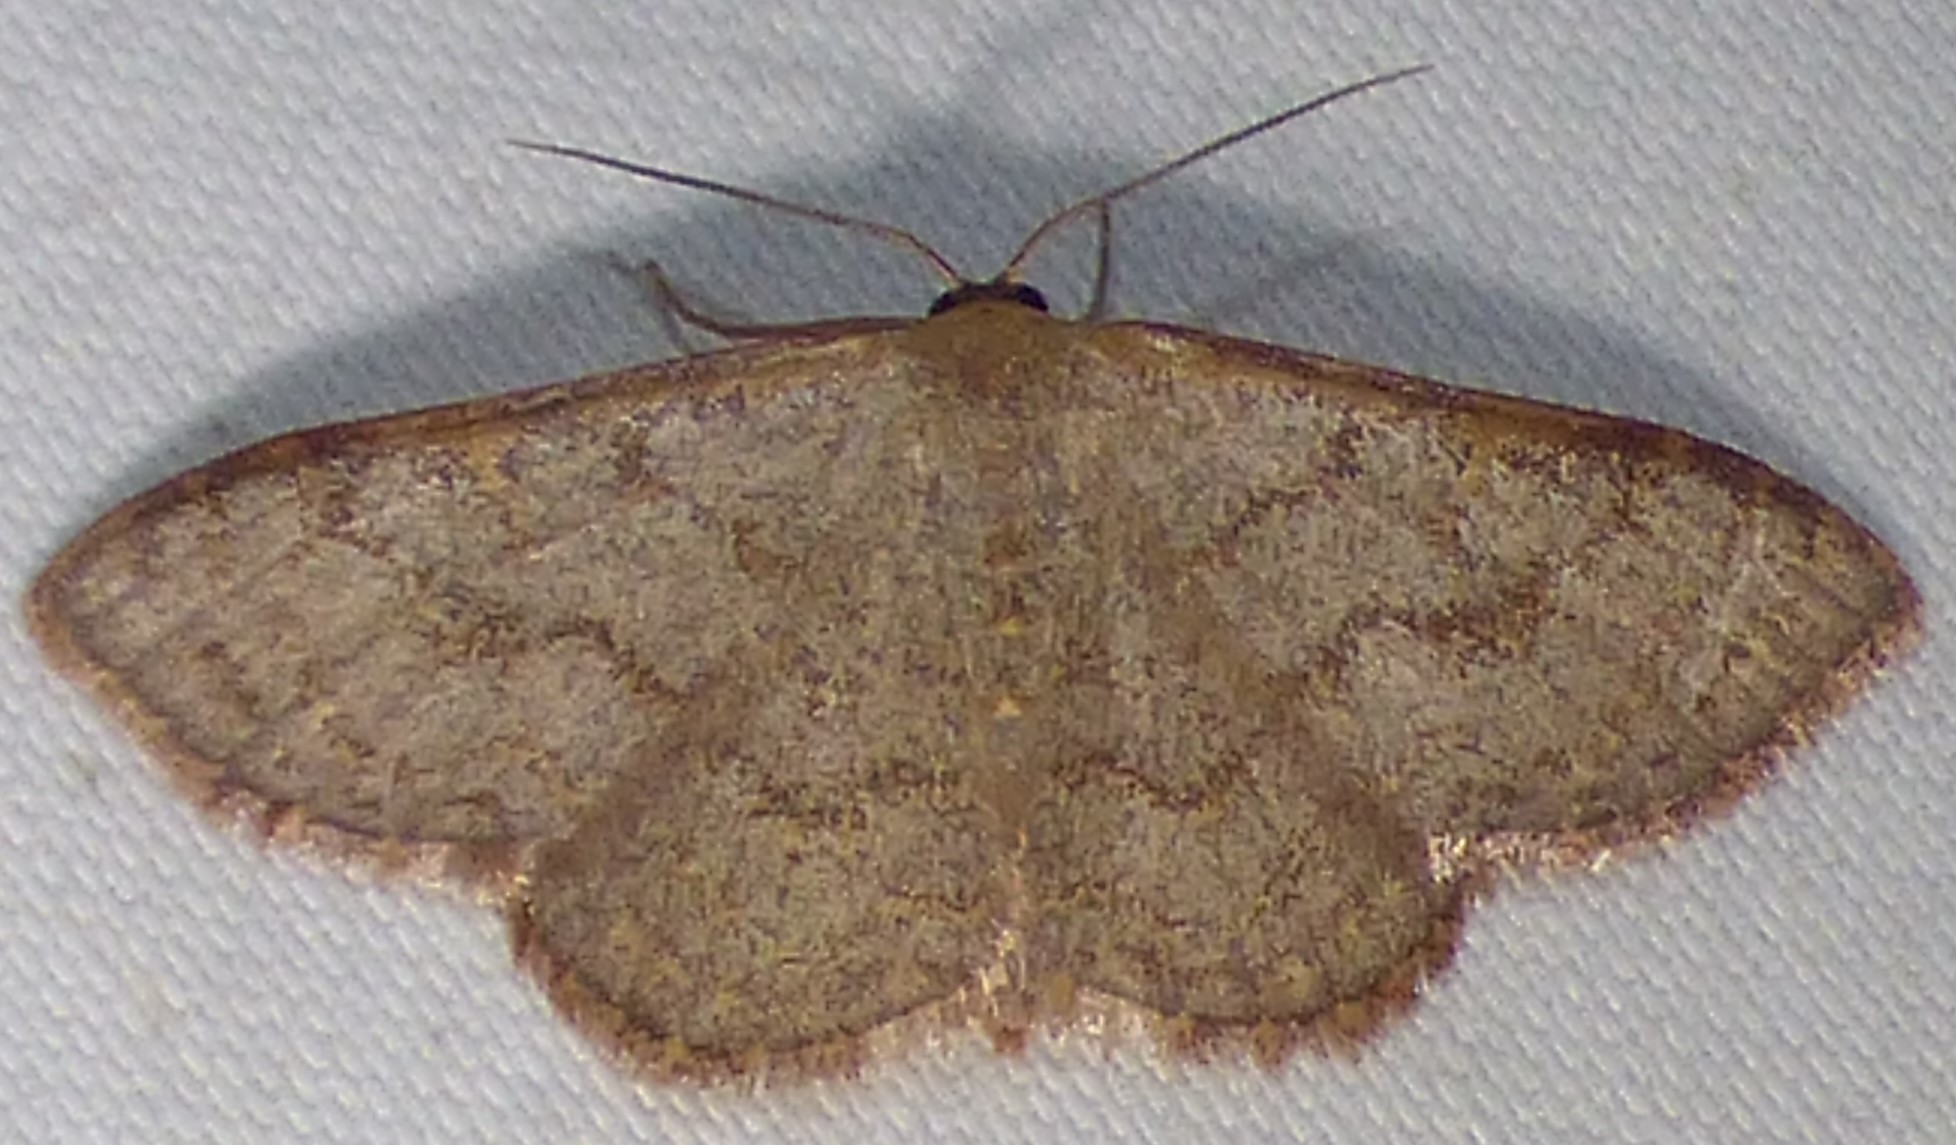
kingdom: Animalia
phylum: Arthropoda
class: Insecta
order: Lepidoptera
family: Geometridae
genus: Leptostales
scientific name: Leptostales pannaria
